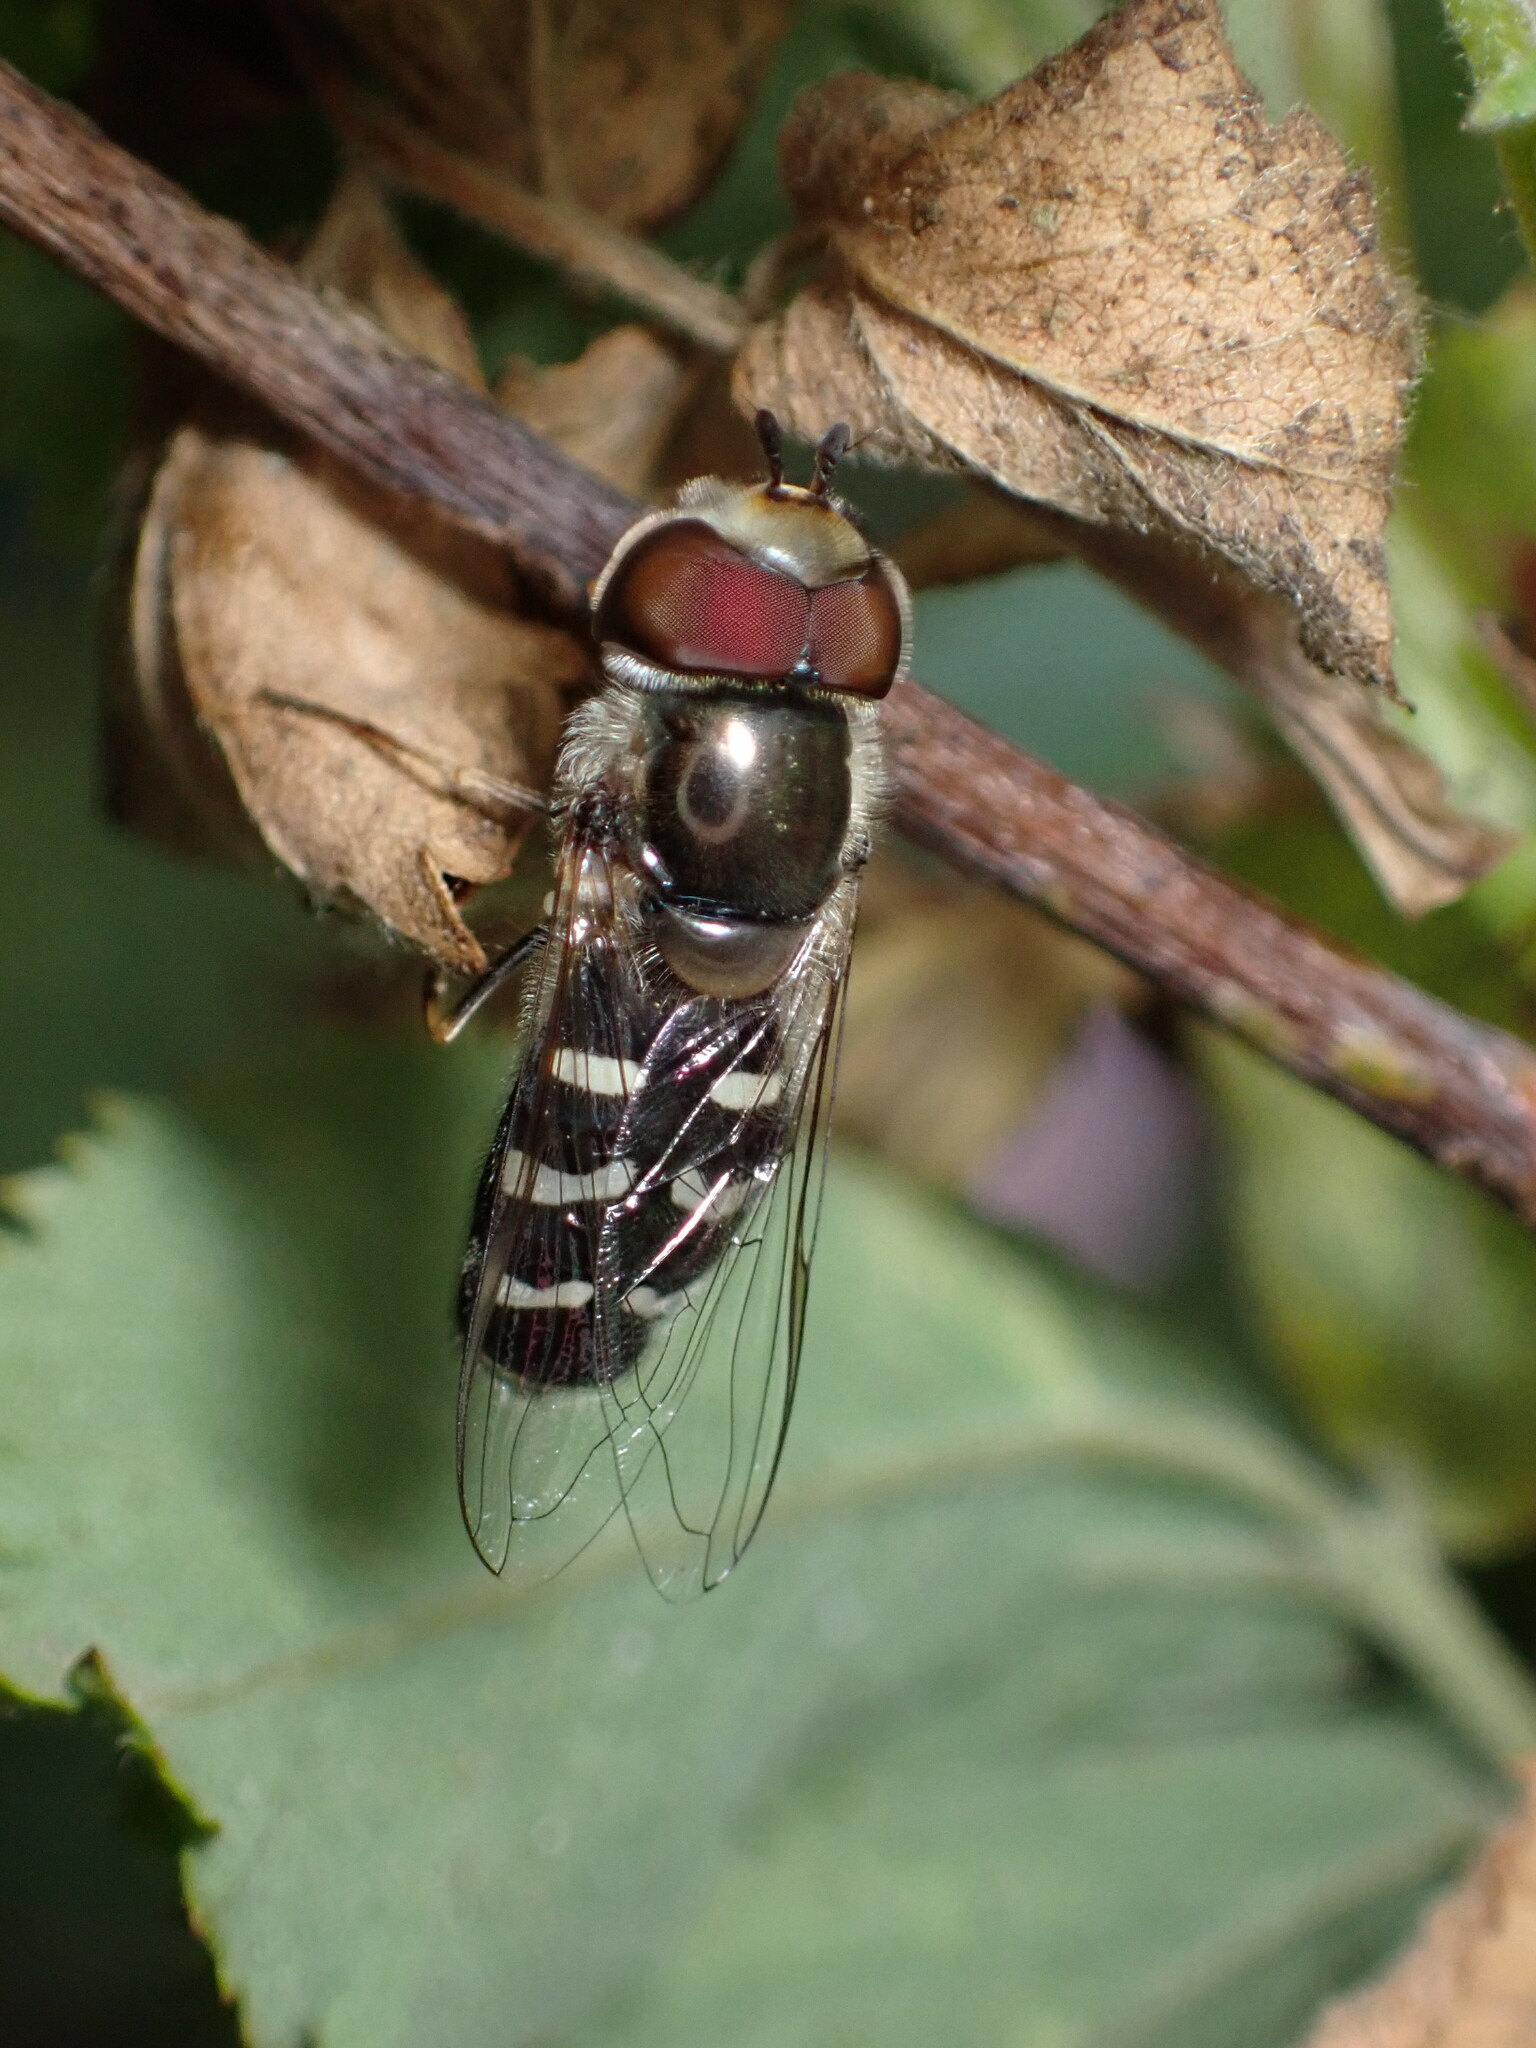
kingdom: Animalia
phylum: Arthropoda
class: Insecta
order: Diptera
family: Syrphidae
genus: Scaeva
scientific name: Scaeva affinis
